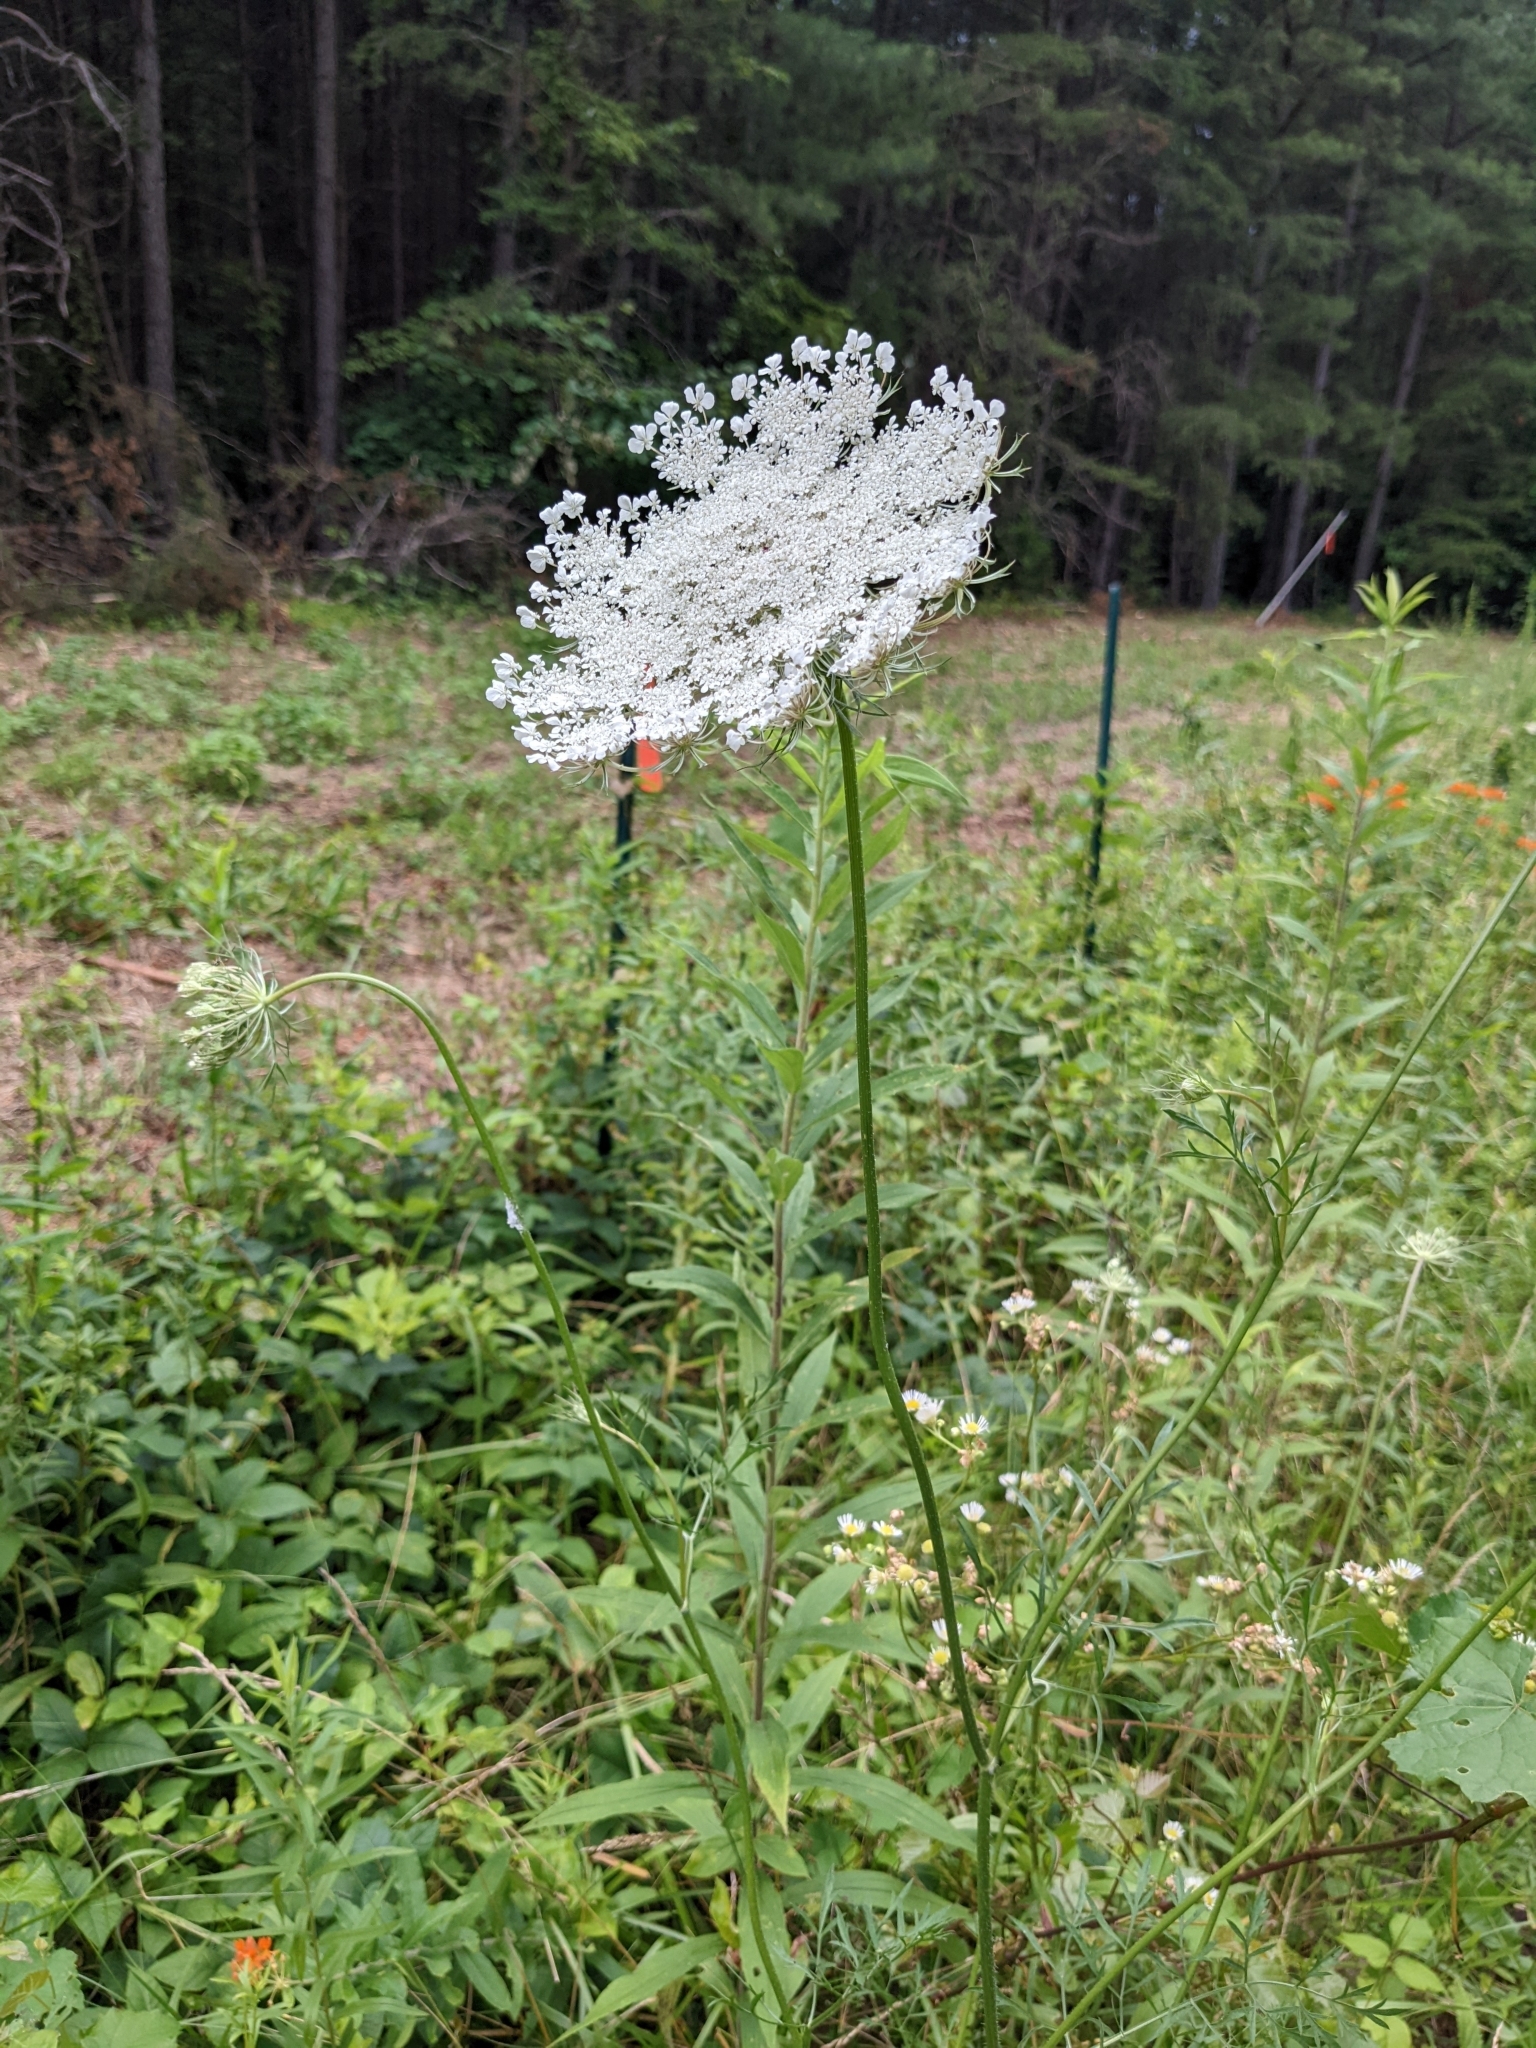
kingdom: Plantae
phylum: Tracheophyta
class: Magnoliopsida
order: Apiales
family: Apiaceae
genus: Daucus
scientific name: Daucus carota
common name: Wild carrot
